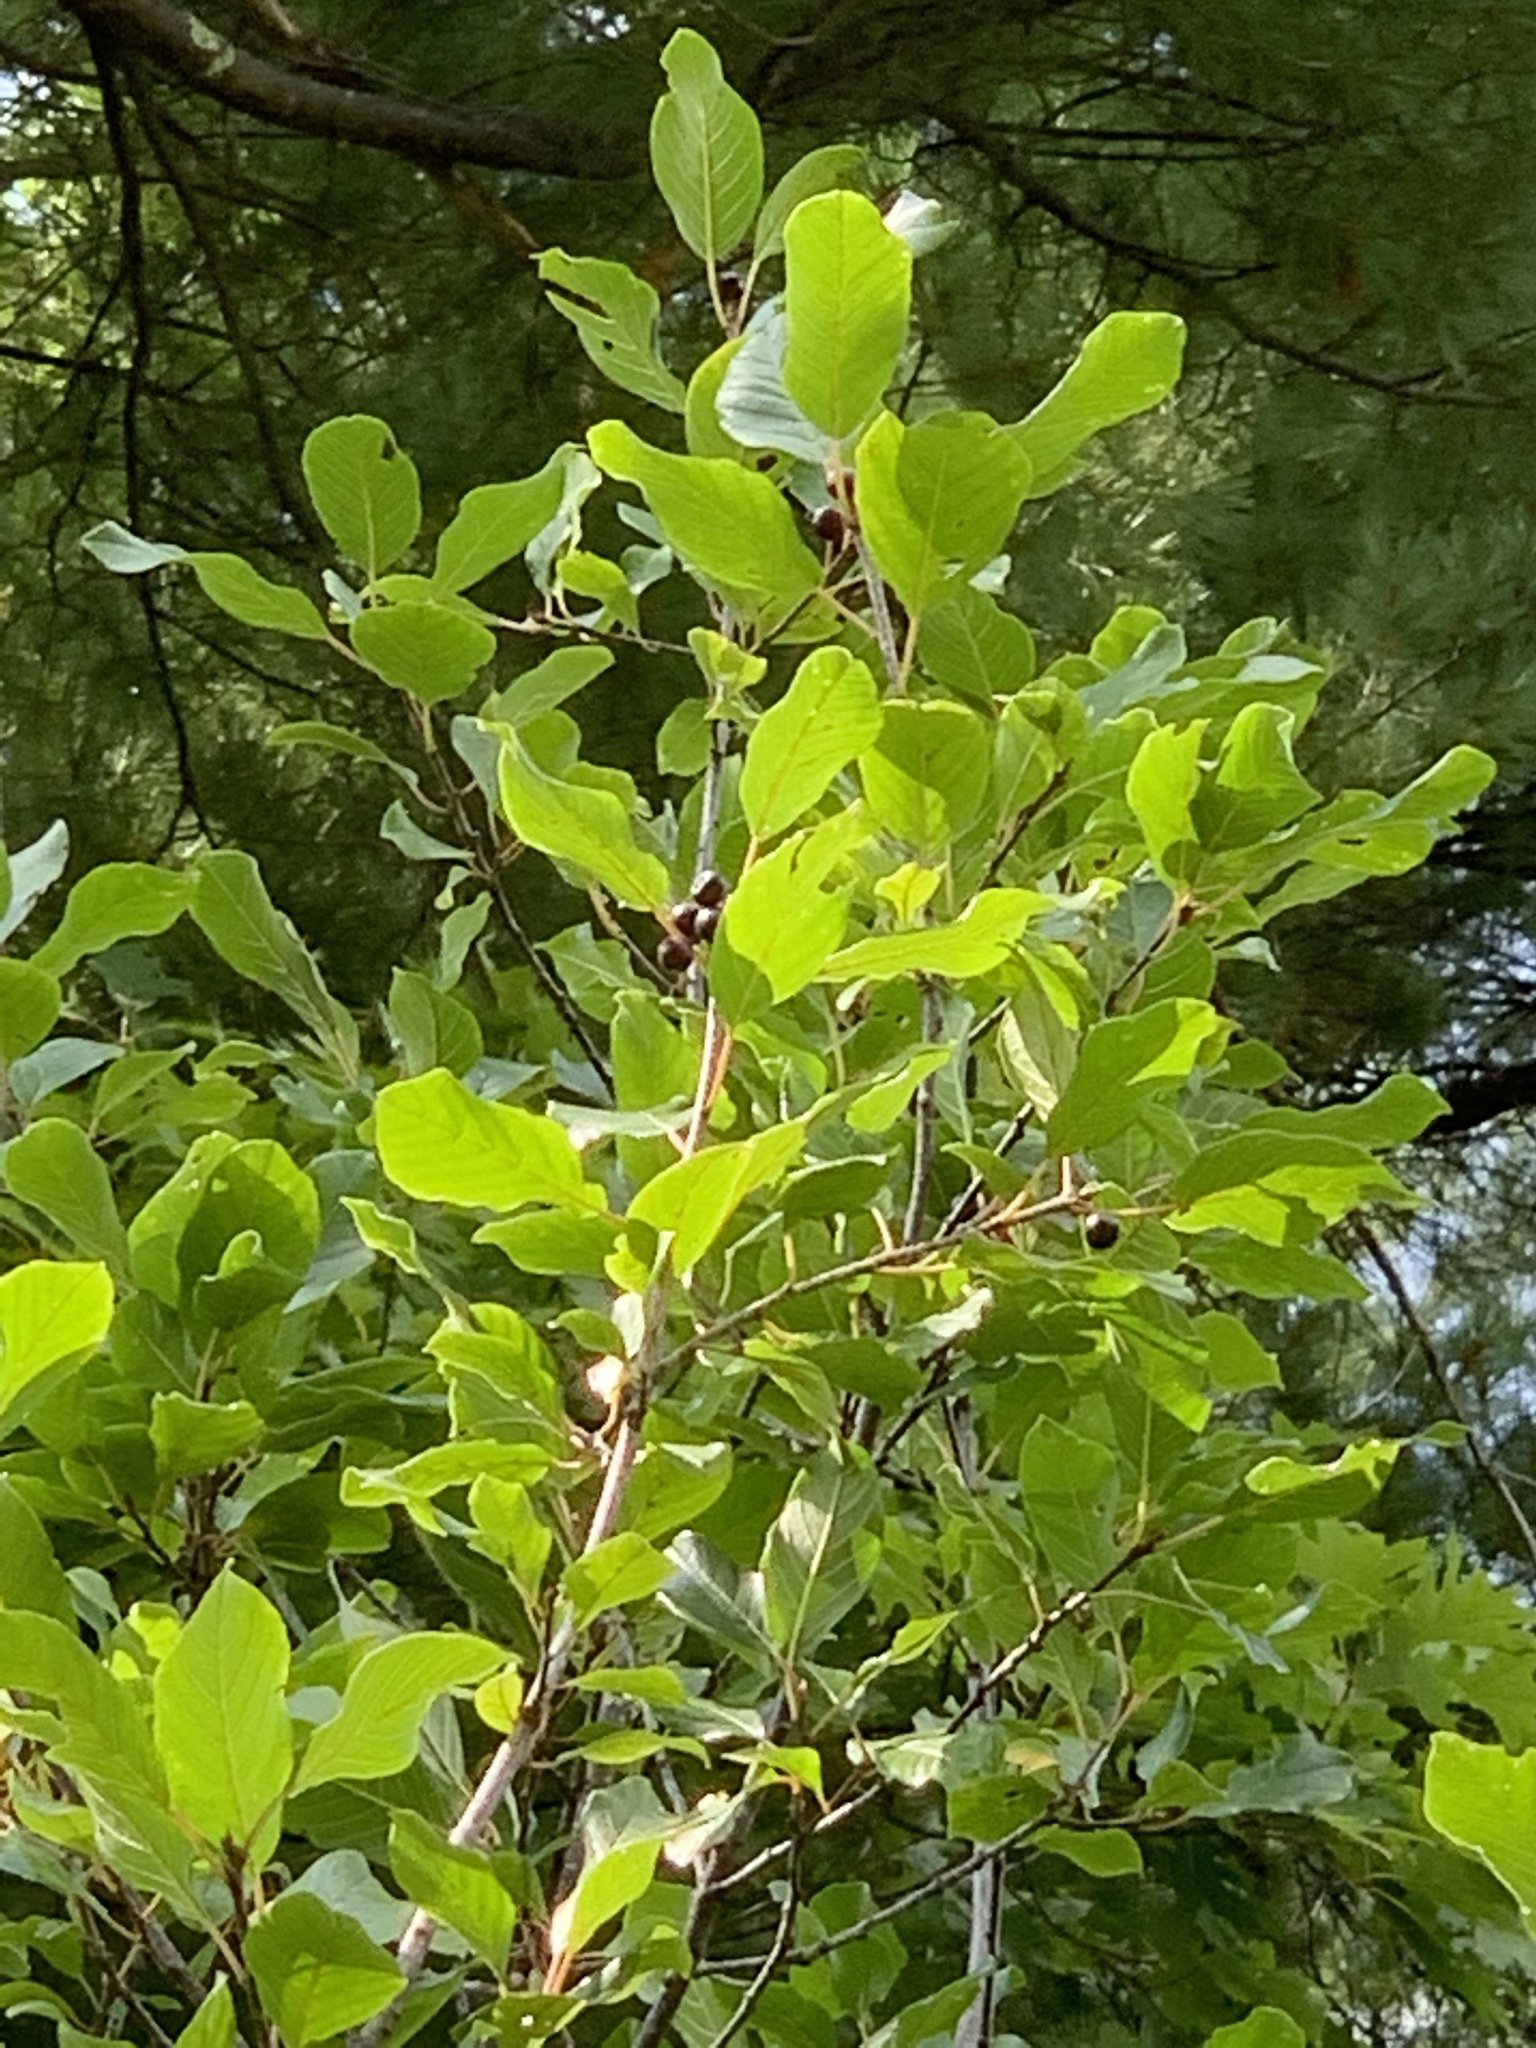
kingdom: Plantae
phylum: Tracheophyta
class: Magnoliopsida
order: Rosales
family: Rhamnaceae
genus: Frangula
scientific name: Frangula alnus
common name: Alder buckthorn
